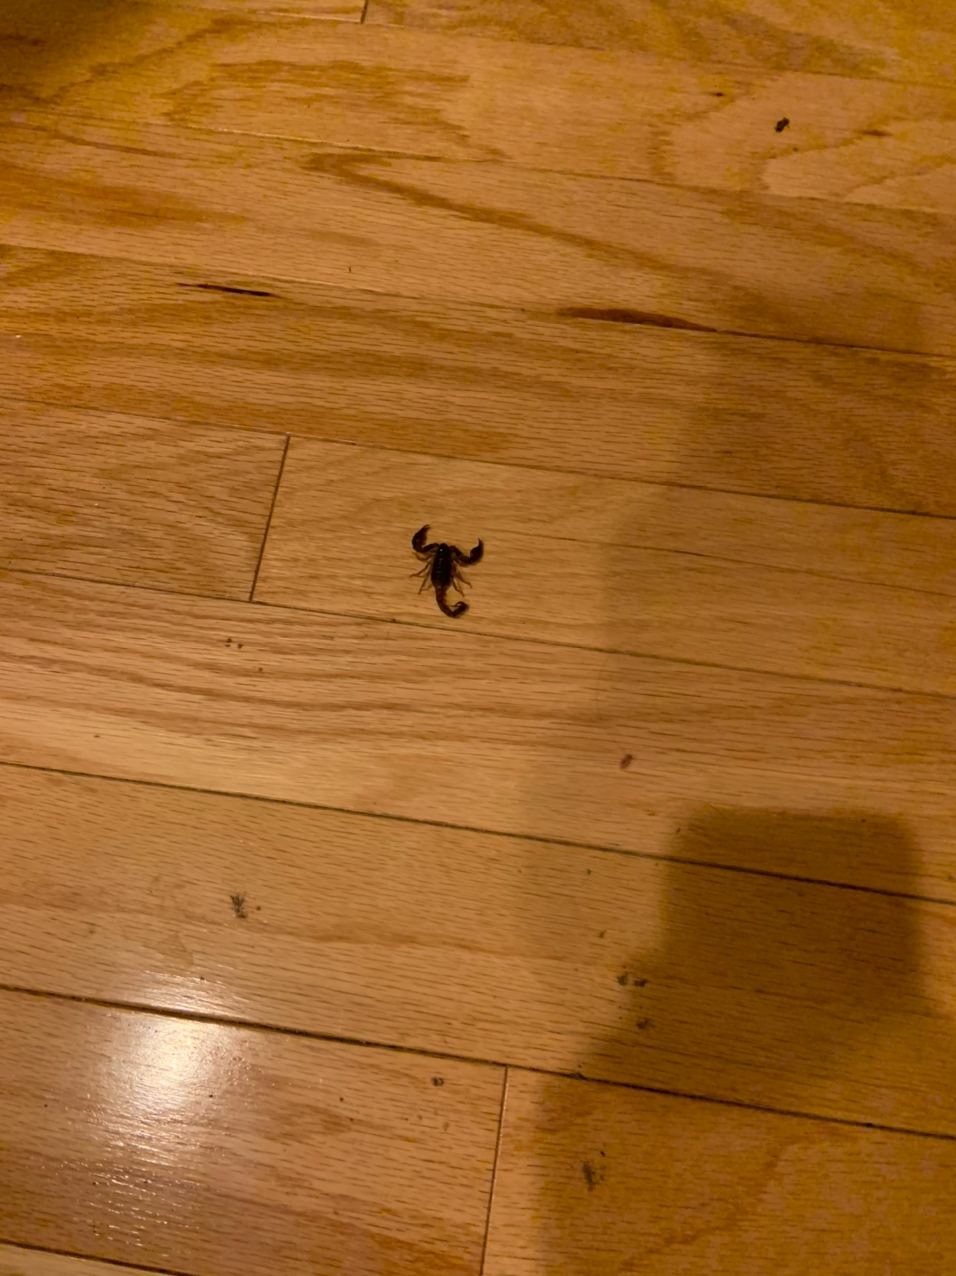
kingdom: Animalia
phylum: Arthropoda
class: Arachnida
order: Scorpiones
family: Chactidae
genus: Uroctonus
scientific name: Uroctonus mordax
